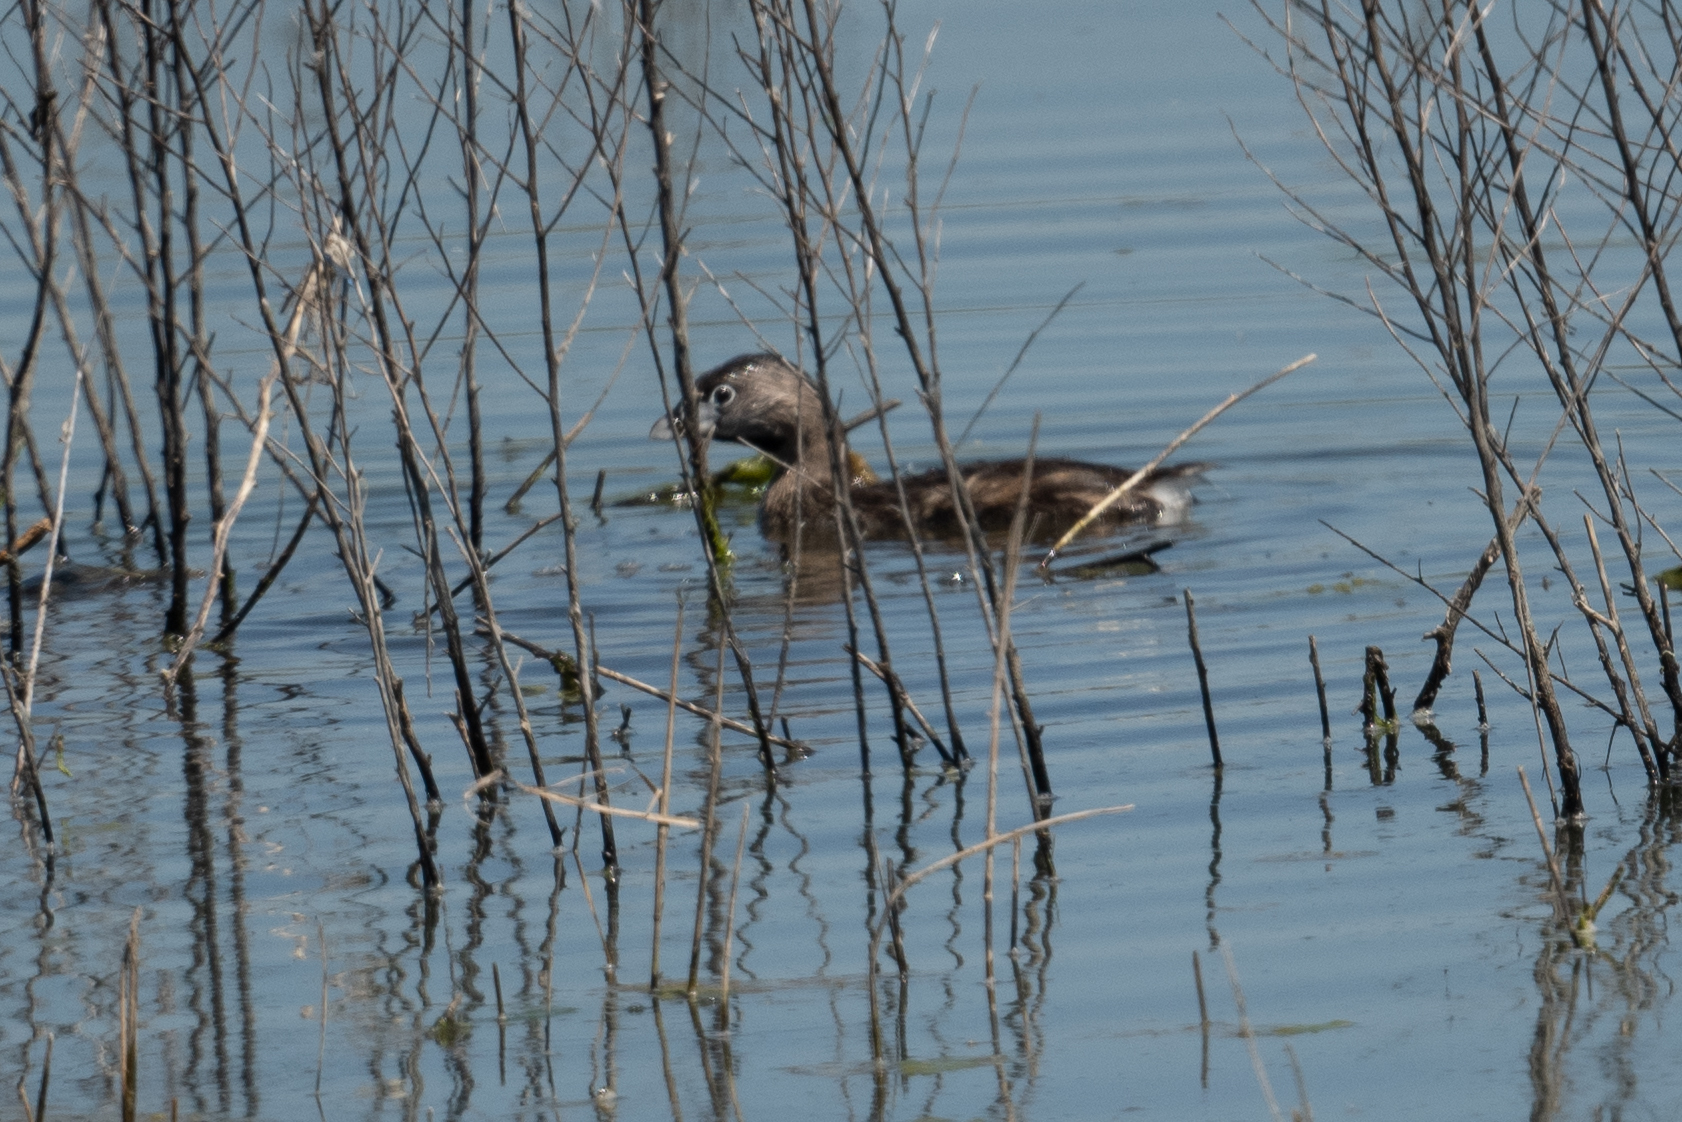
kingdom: Animalia
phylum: Chordata
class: Aves
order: Podicipediformes
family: Podicipedidae
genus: Podilymbus
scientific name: Podilymbus podiceps
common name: Pied-billed grebe
